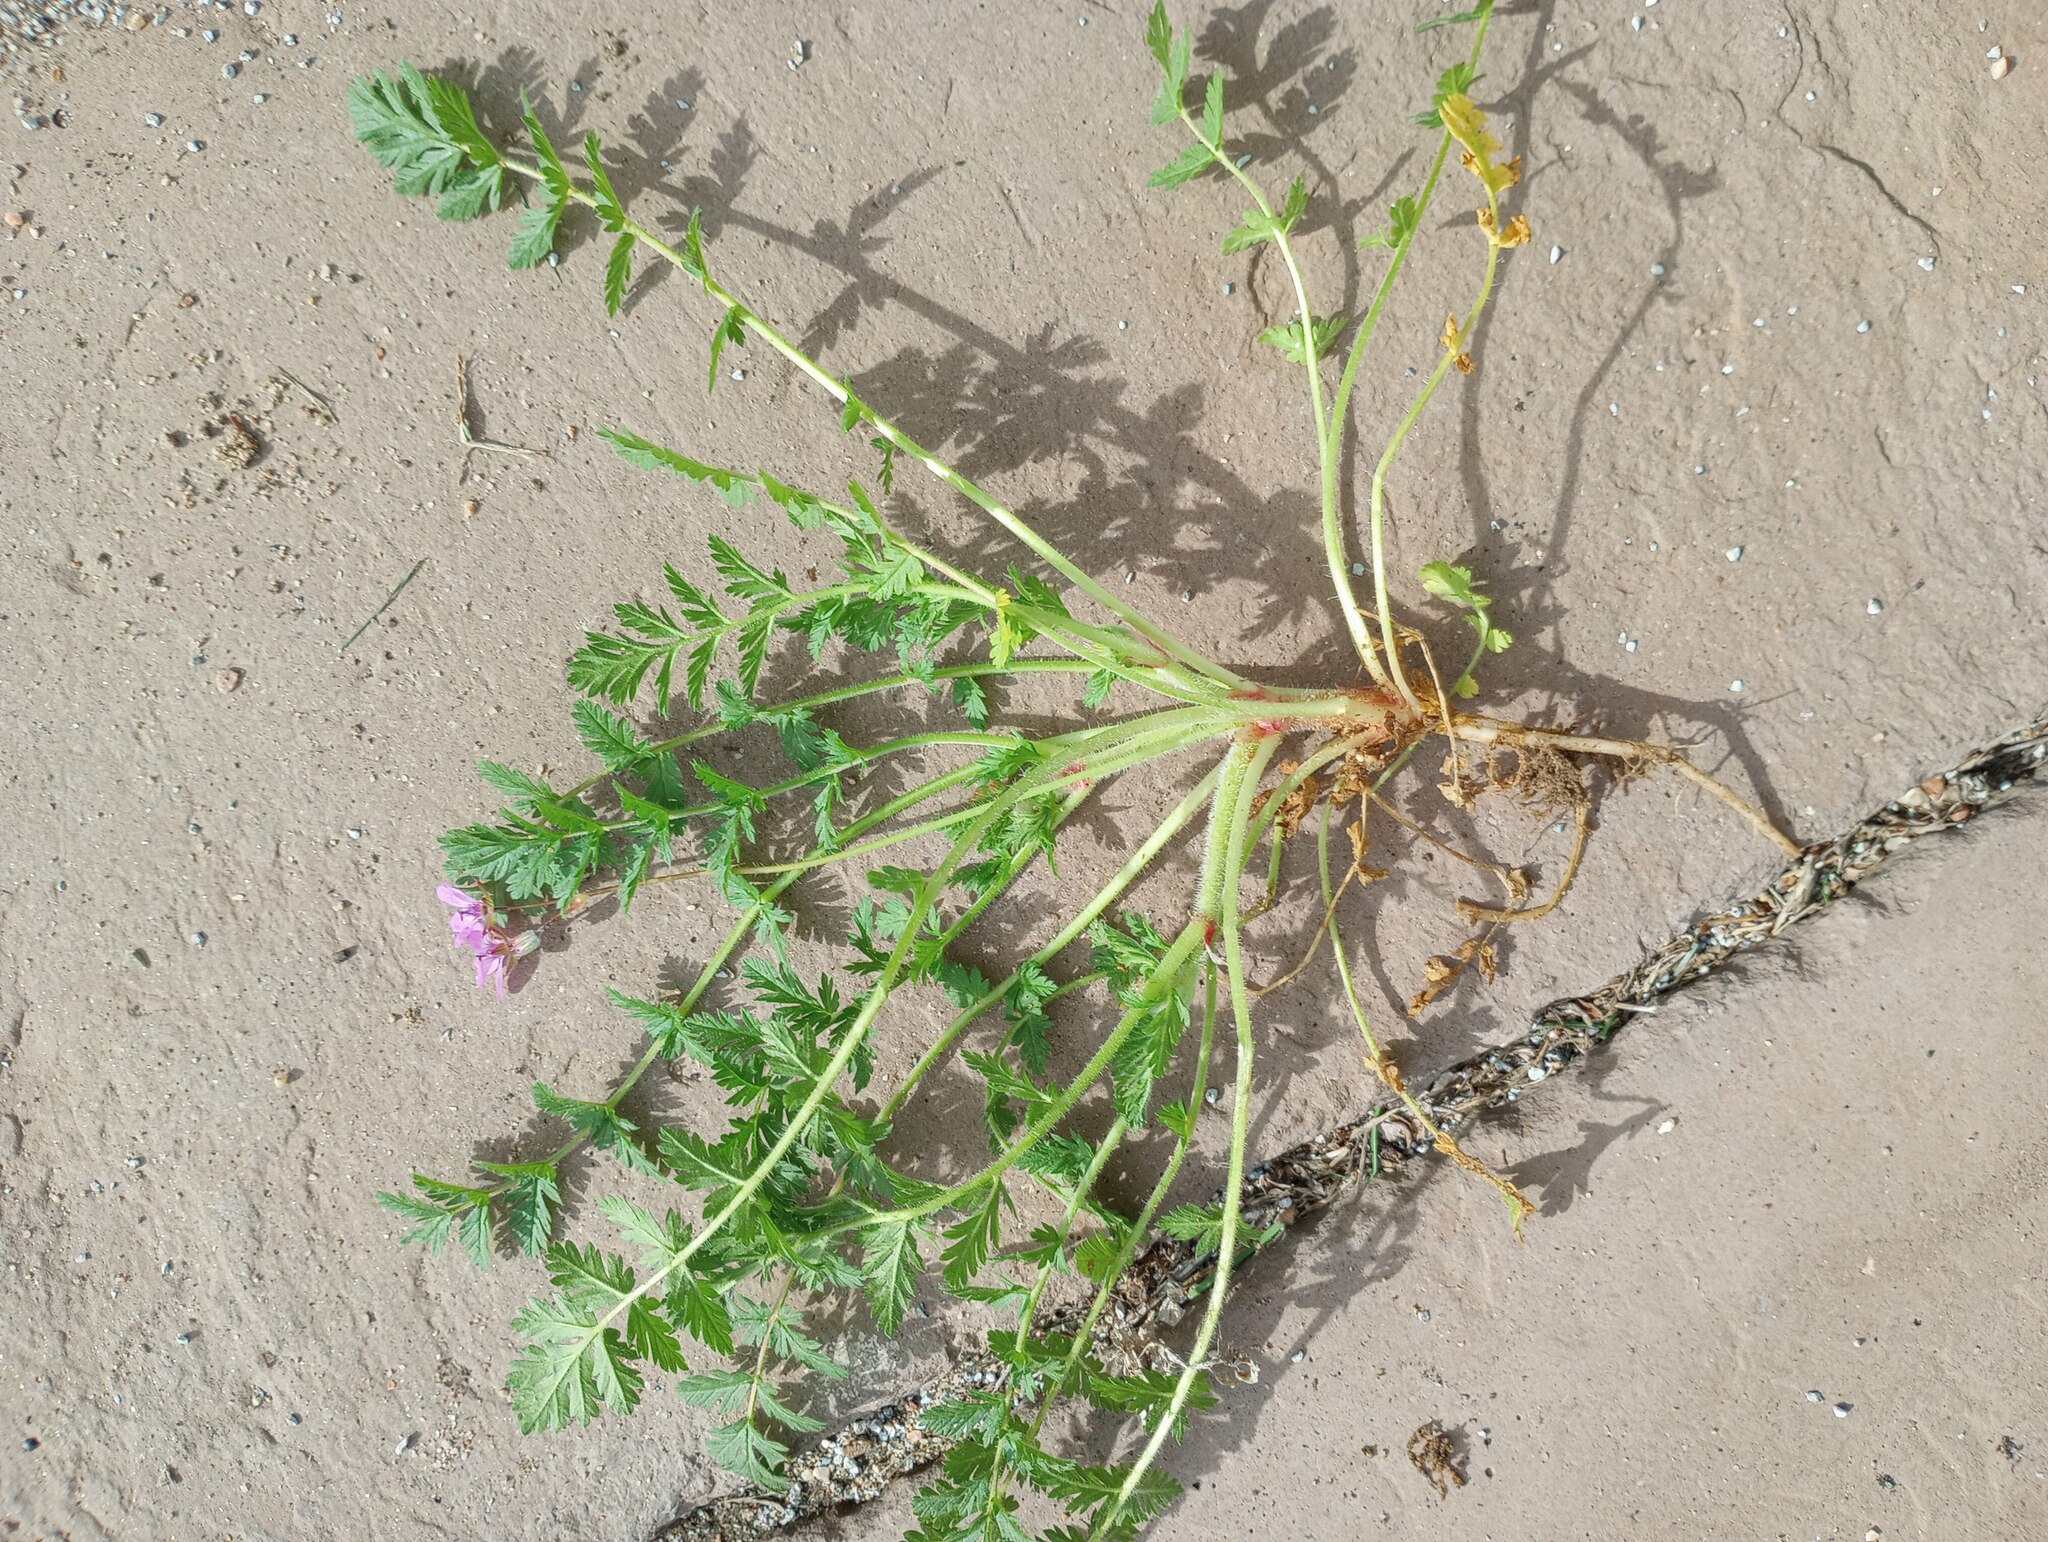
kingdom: Plantae
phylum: Tracheophyta
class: Magnoliopsida
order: Geraniales
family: Geraniaceae
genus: Erodium
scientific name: Erodium cicutarium
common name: Common stork's-bill
